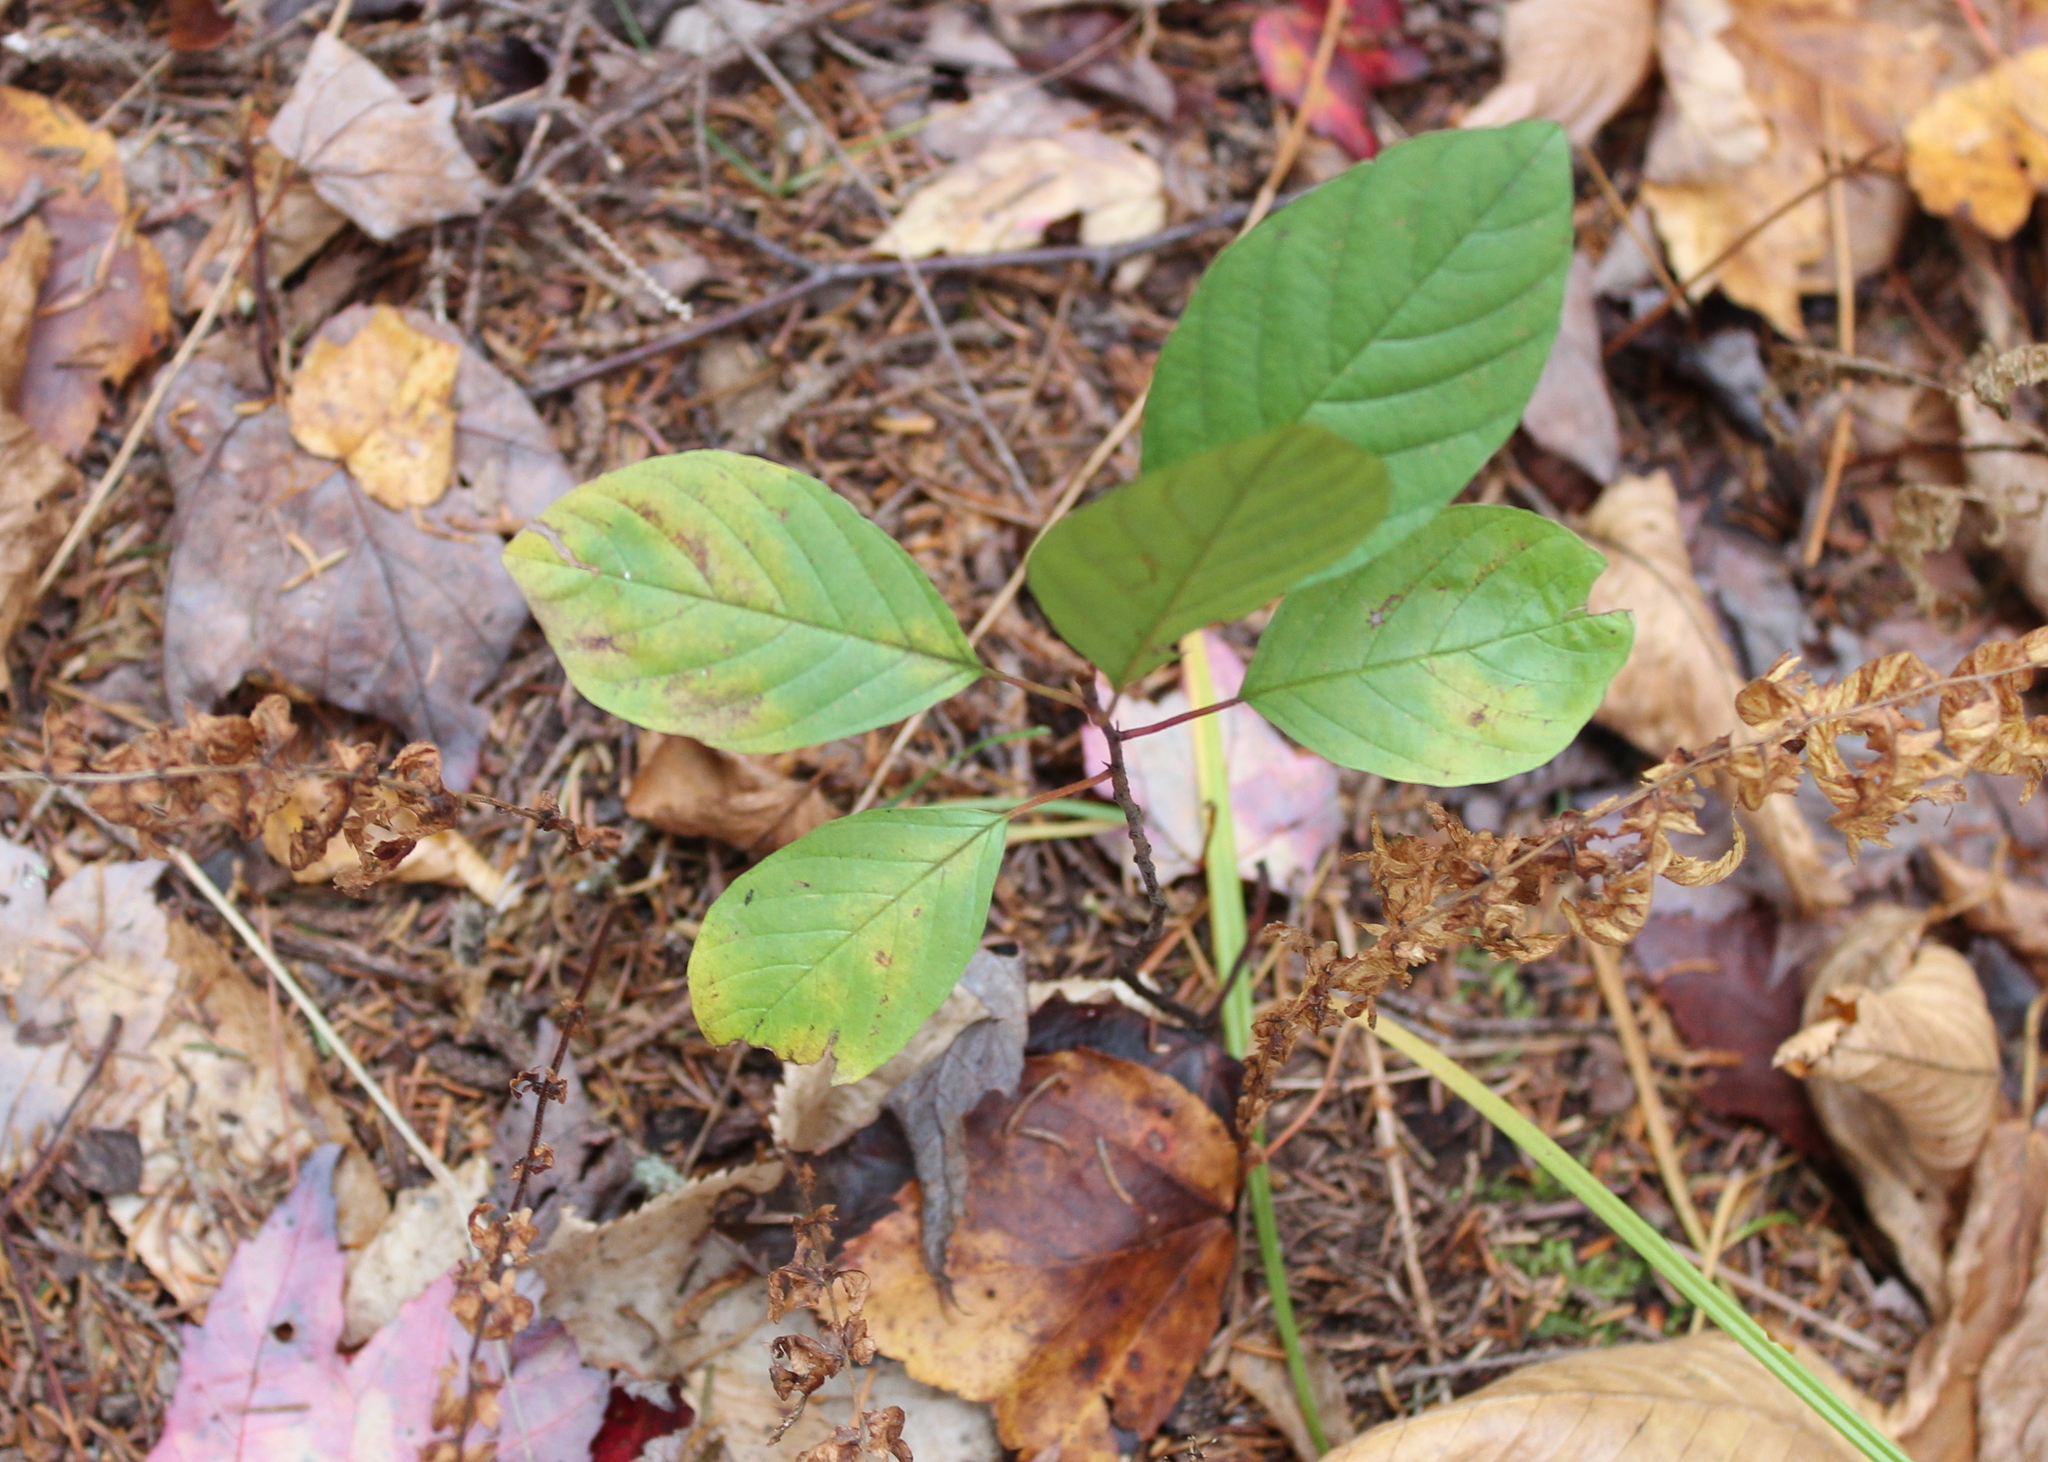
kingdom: Plantae
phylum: Tracheophyta
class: Magnoliopsida
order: Rosales
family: Rhamnaceae
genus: Frangula
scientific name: Frangula alnus
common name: Alder buckthorn
